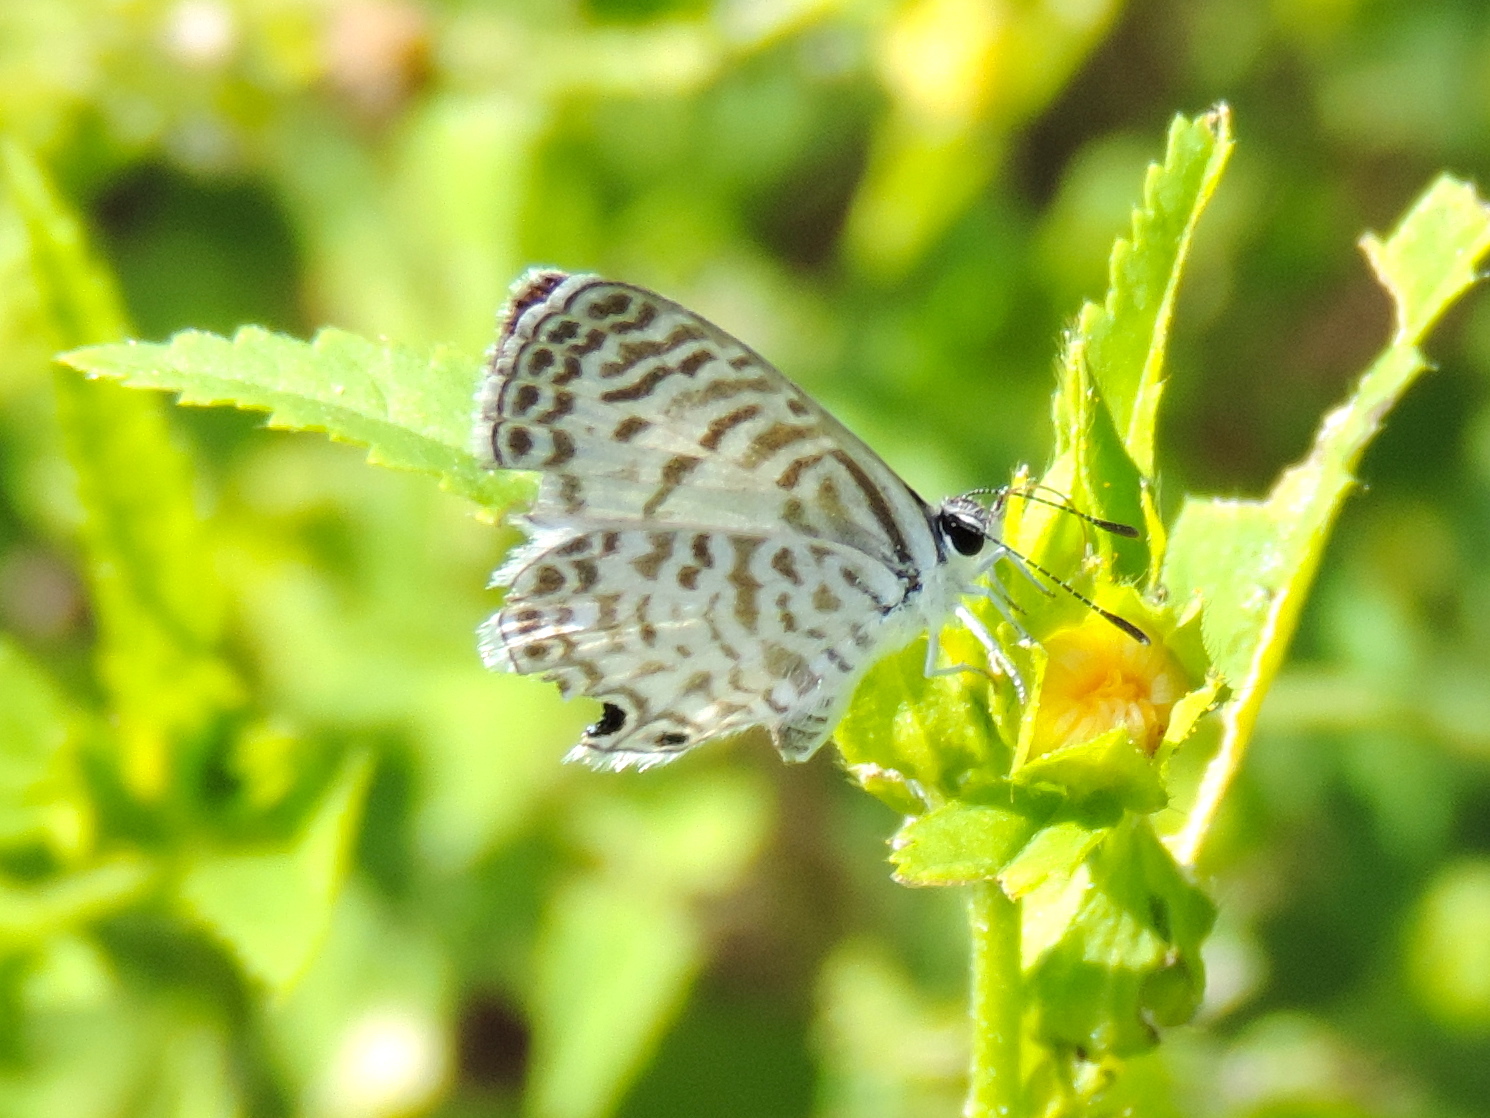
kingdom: Animalia
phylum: Arthropoda
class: Insecta
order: Lepidoptera
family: Lycaenidae
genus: Leptotes
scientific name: Leptotes cassius
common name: Cassius blue
